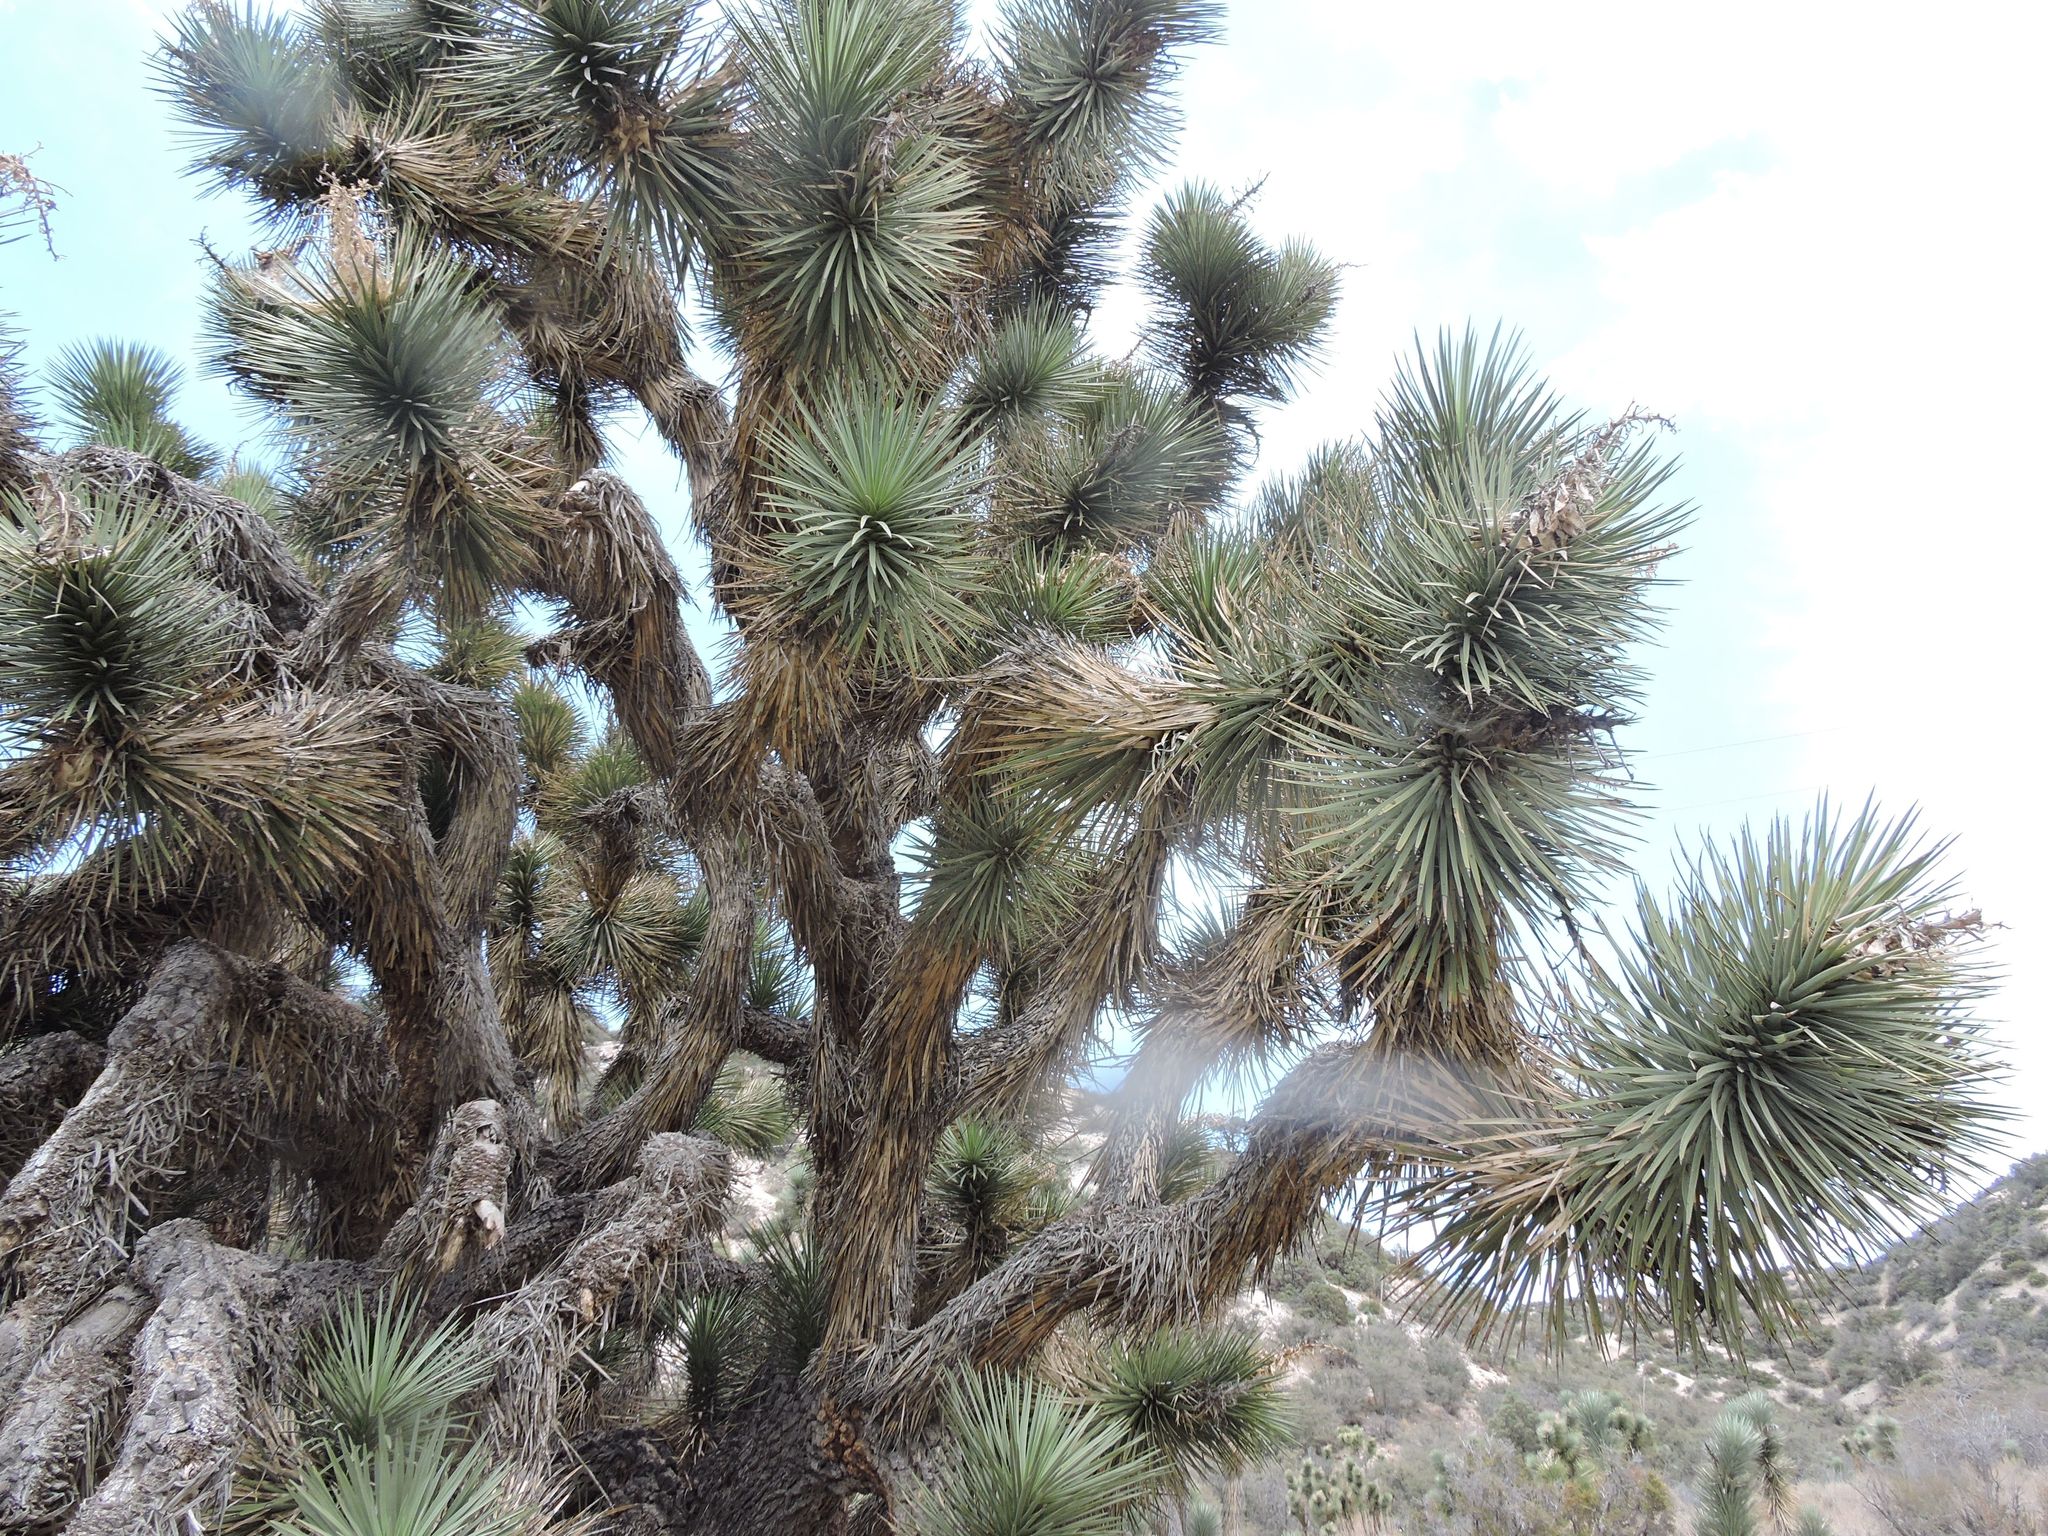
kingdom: Plantae
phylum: Tracheophyta
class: Liliopsida
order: Asparagales
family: Asparagaceae
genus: Yucca
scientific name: Yucca brevifolia
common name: Joshua tree
